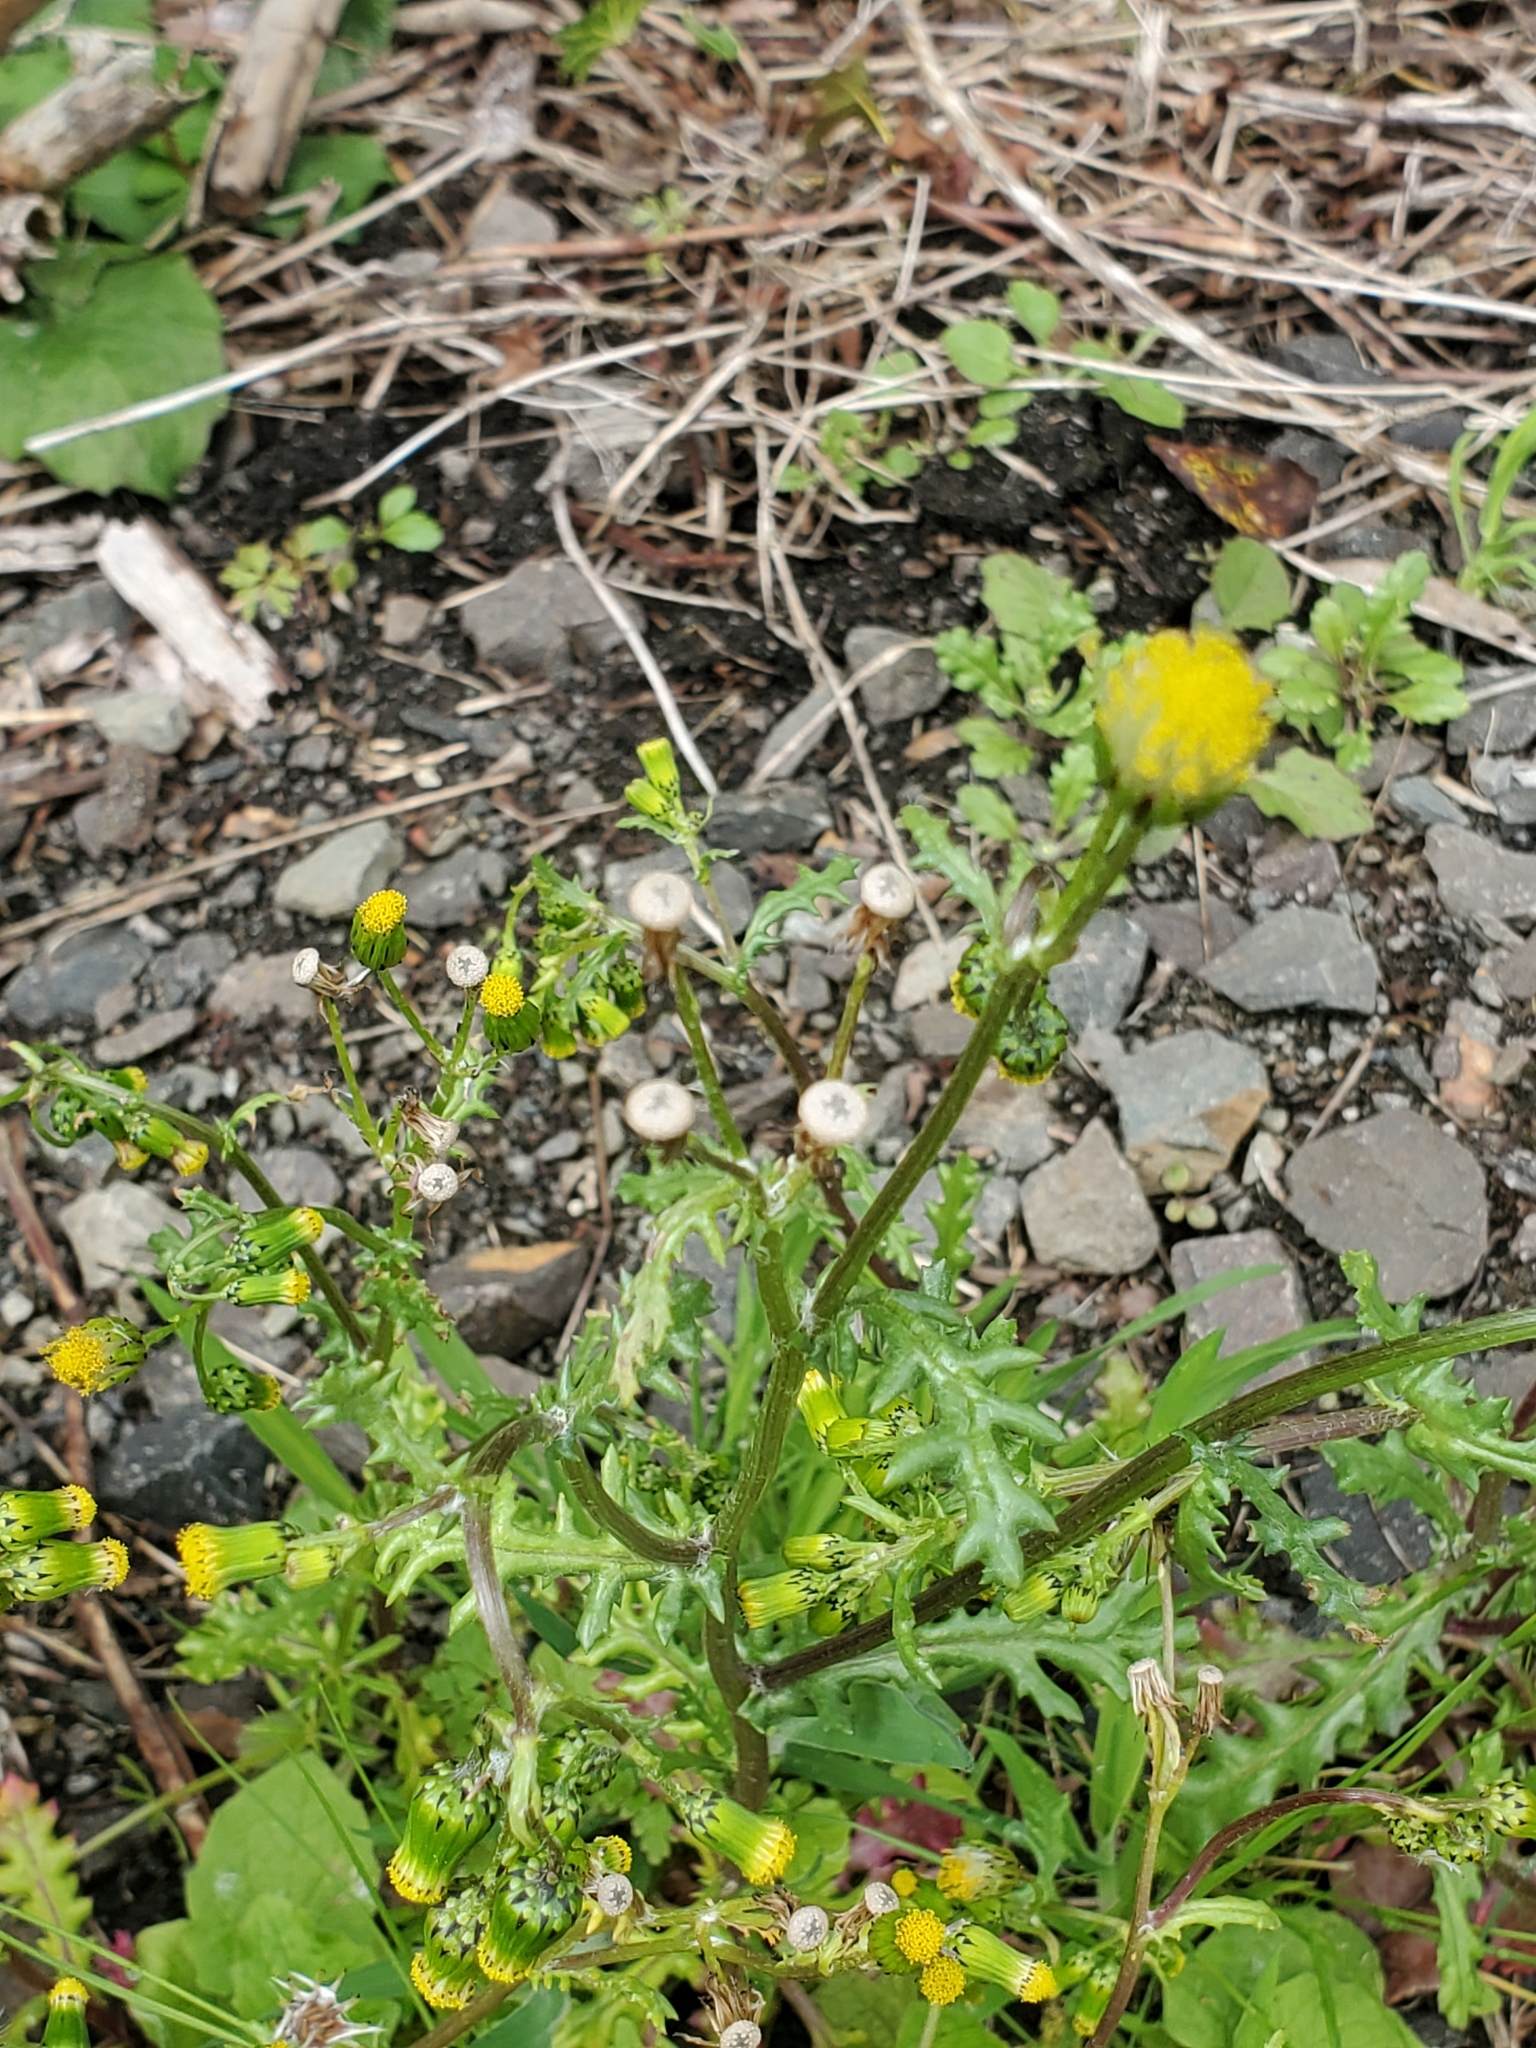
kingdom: Plantae
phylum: Tracheophyta
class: Magnoliopsida
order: Asterales
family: Asteraceae
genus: Senecio
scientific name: Senecio vulgaris
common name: Old-man-in-the-spring
